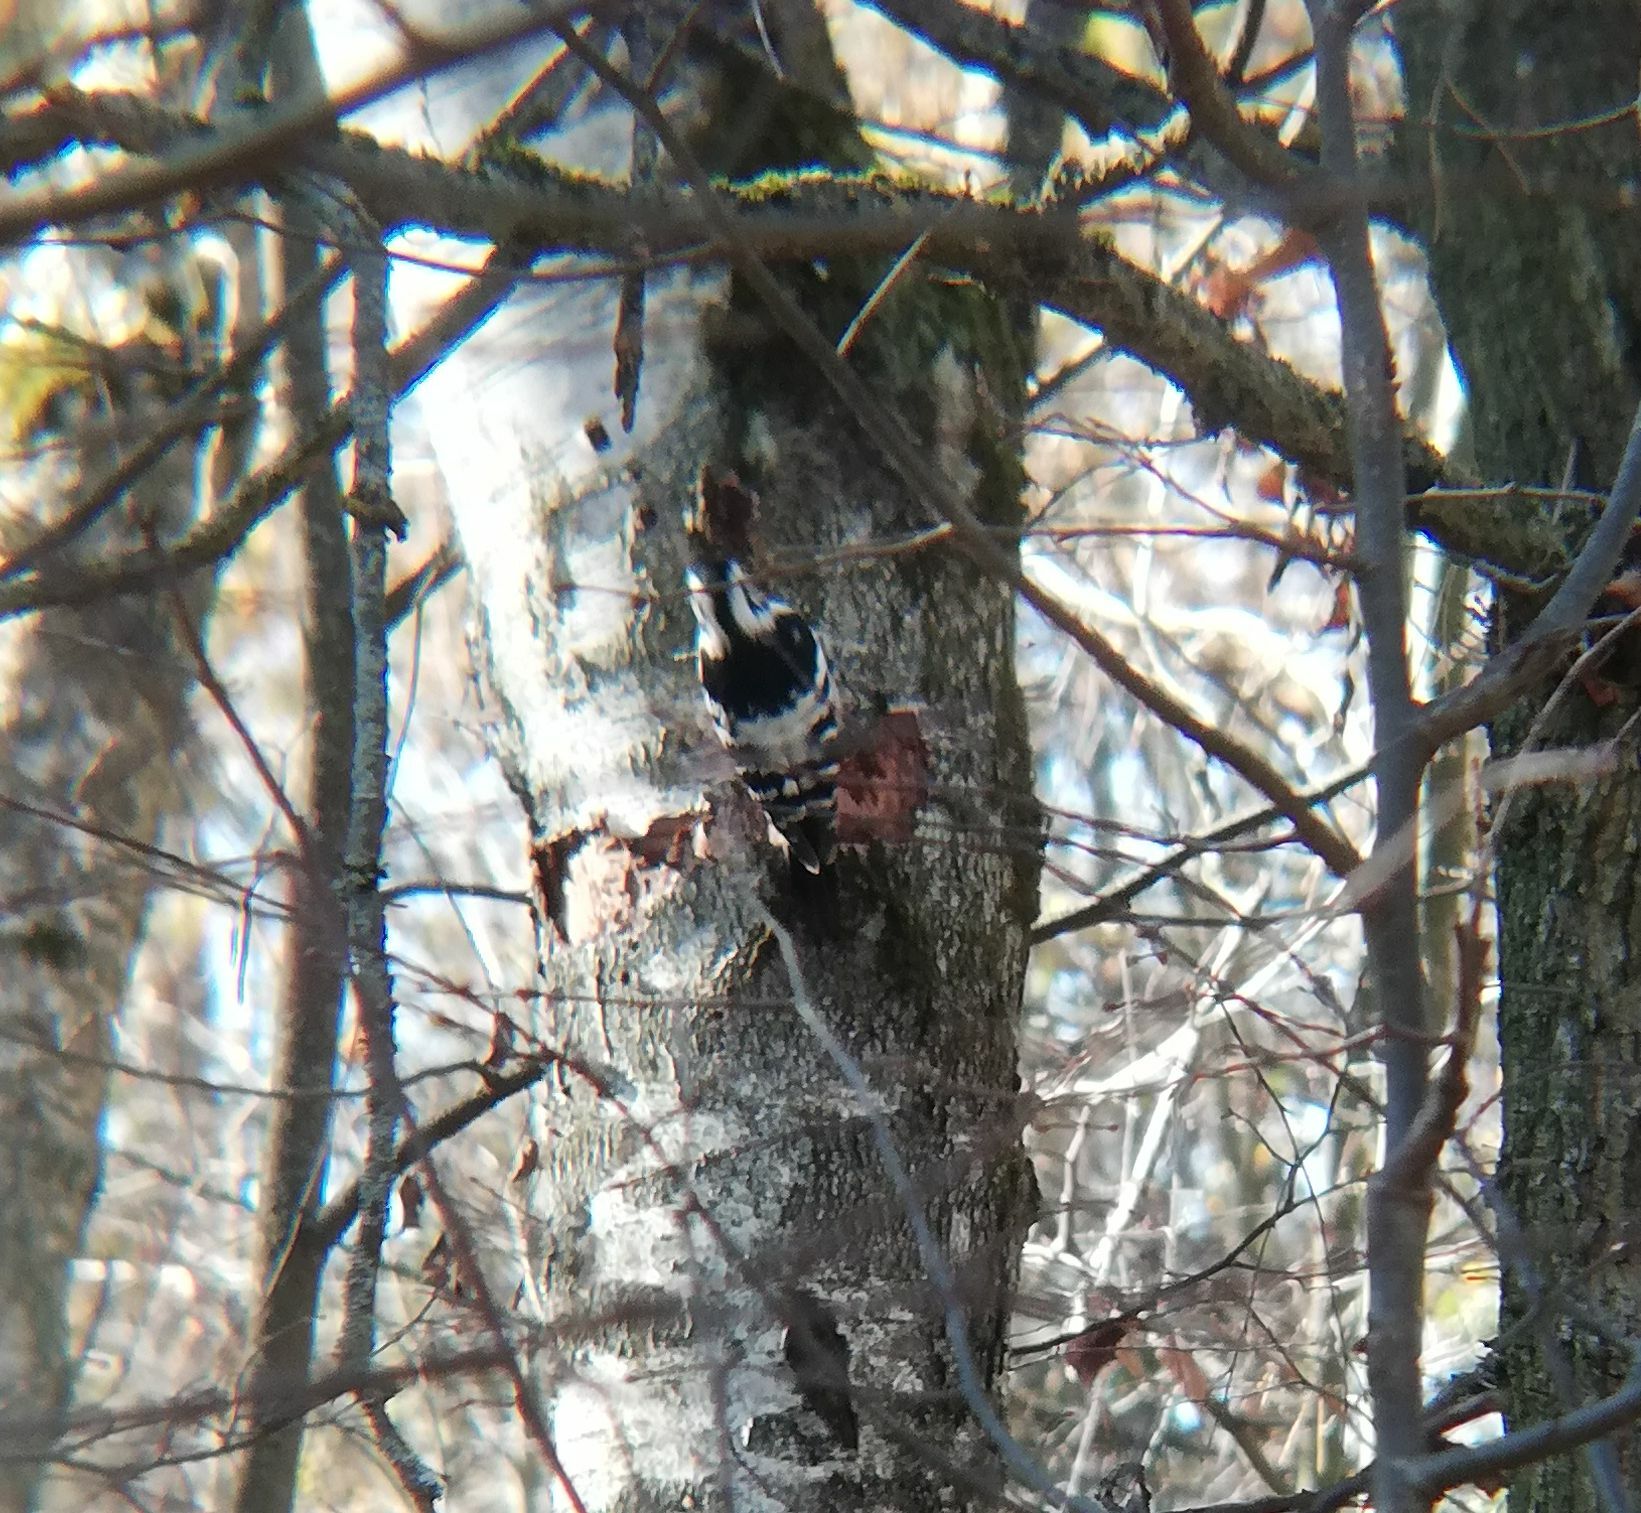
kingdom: Animalia
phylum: Chordata
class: Aves
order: Piciformes
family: Picidae
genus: Dendrocopos
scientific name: Dendrocopos leucotos
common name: White-backed woodpecker
